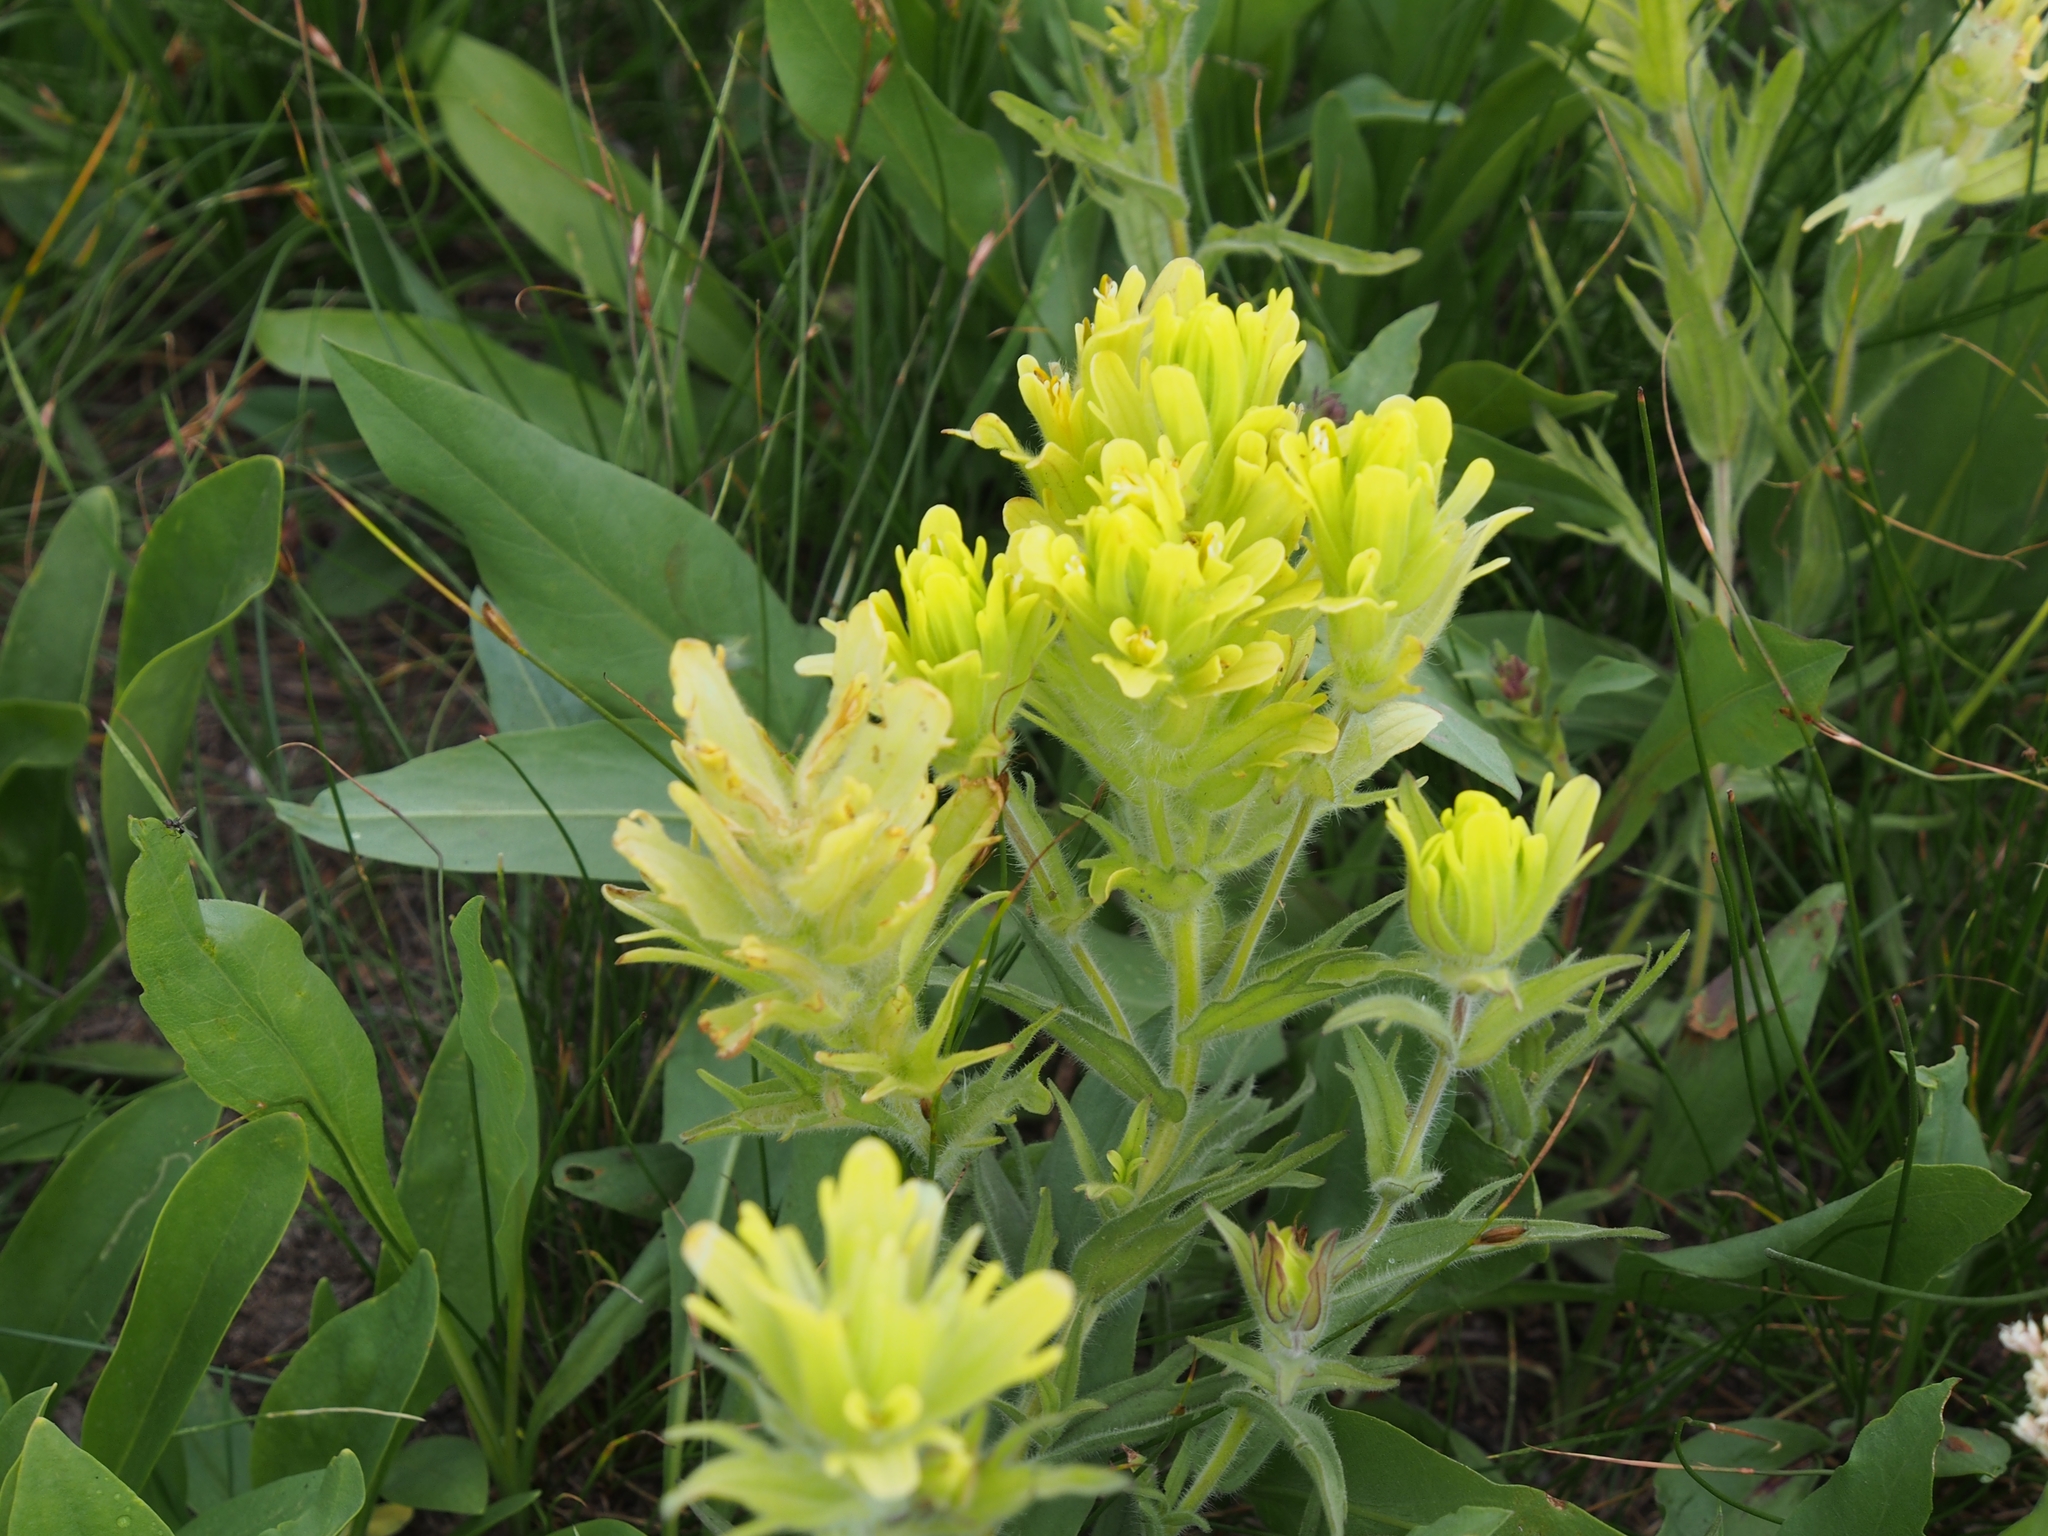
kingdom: Plantae
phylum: Tracheophyta
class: Magnoliopsida
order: Lamiales
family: Orobanchaceae
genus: Castilleja
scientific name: Castilleja cusickii
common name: Cusick's paintbrush
